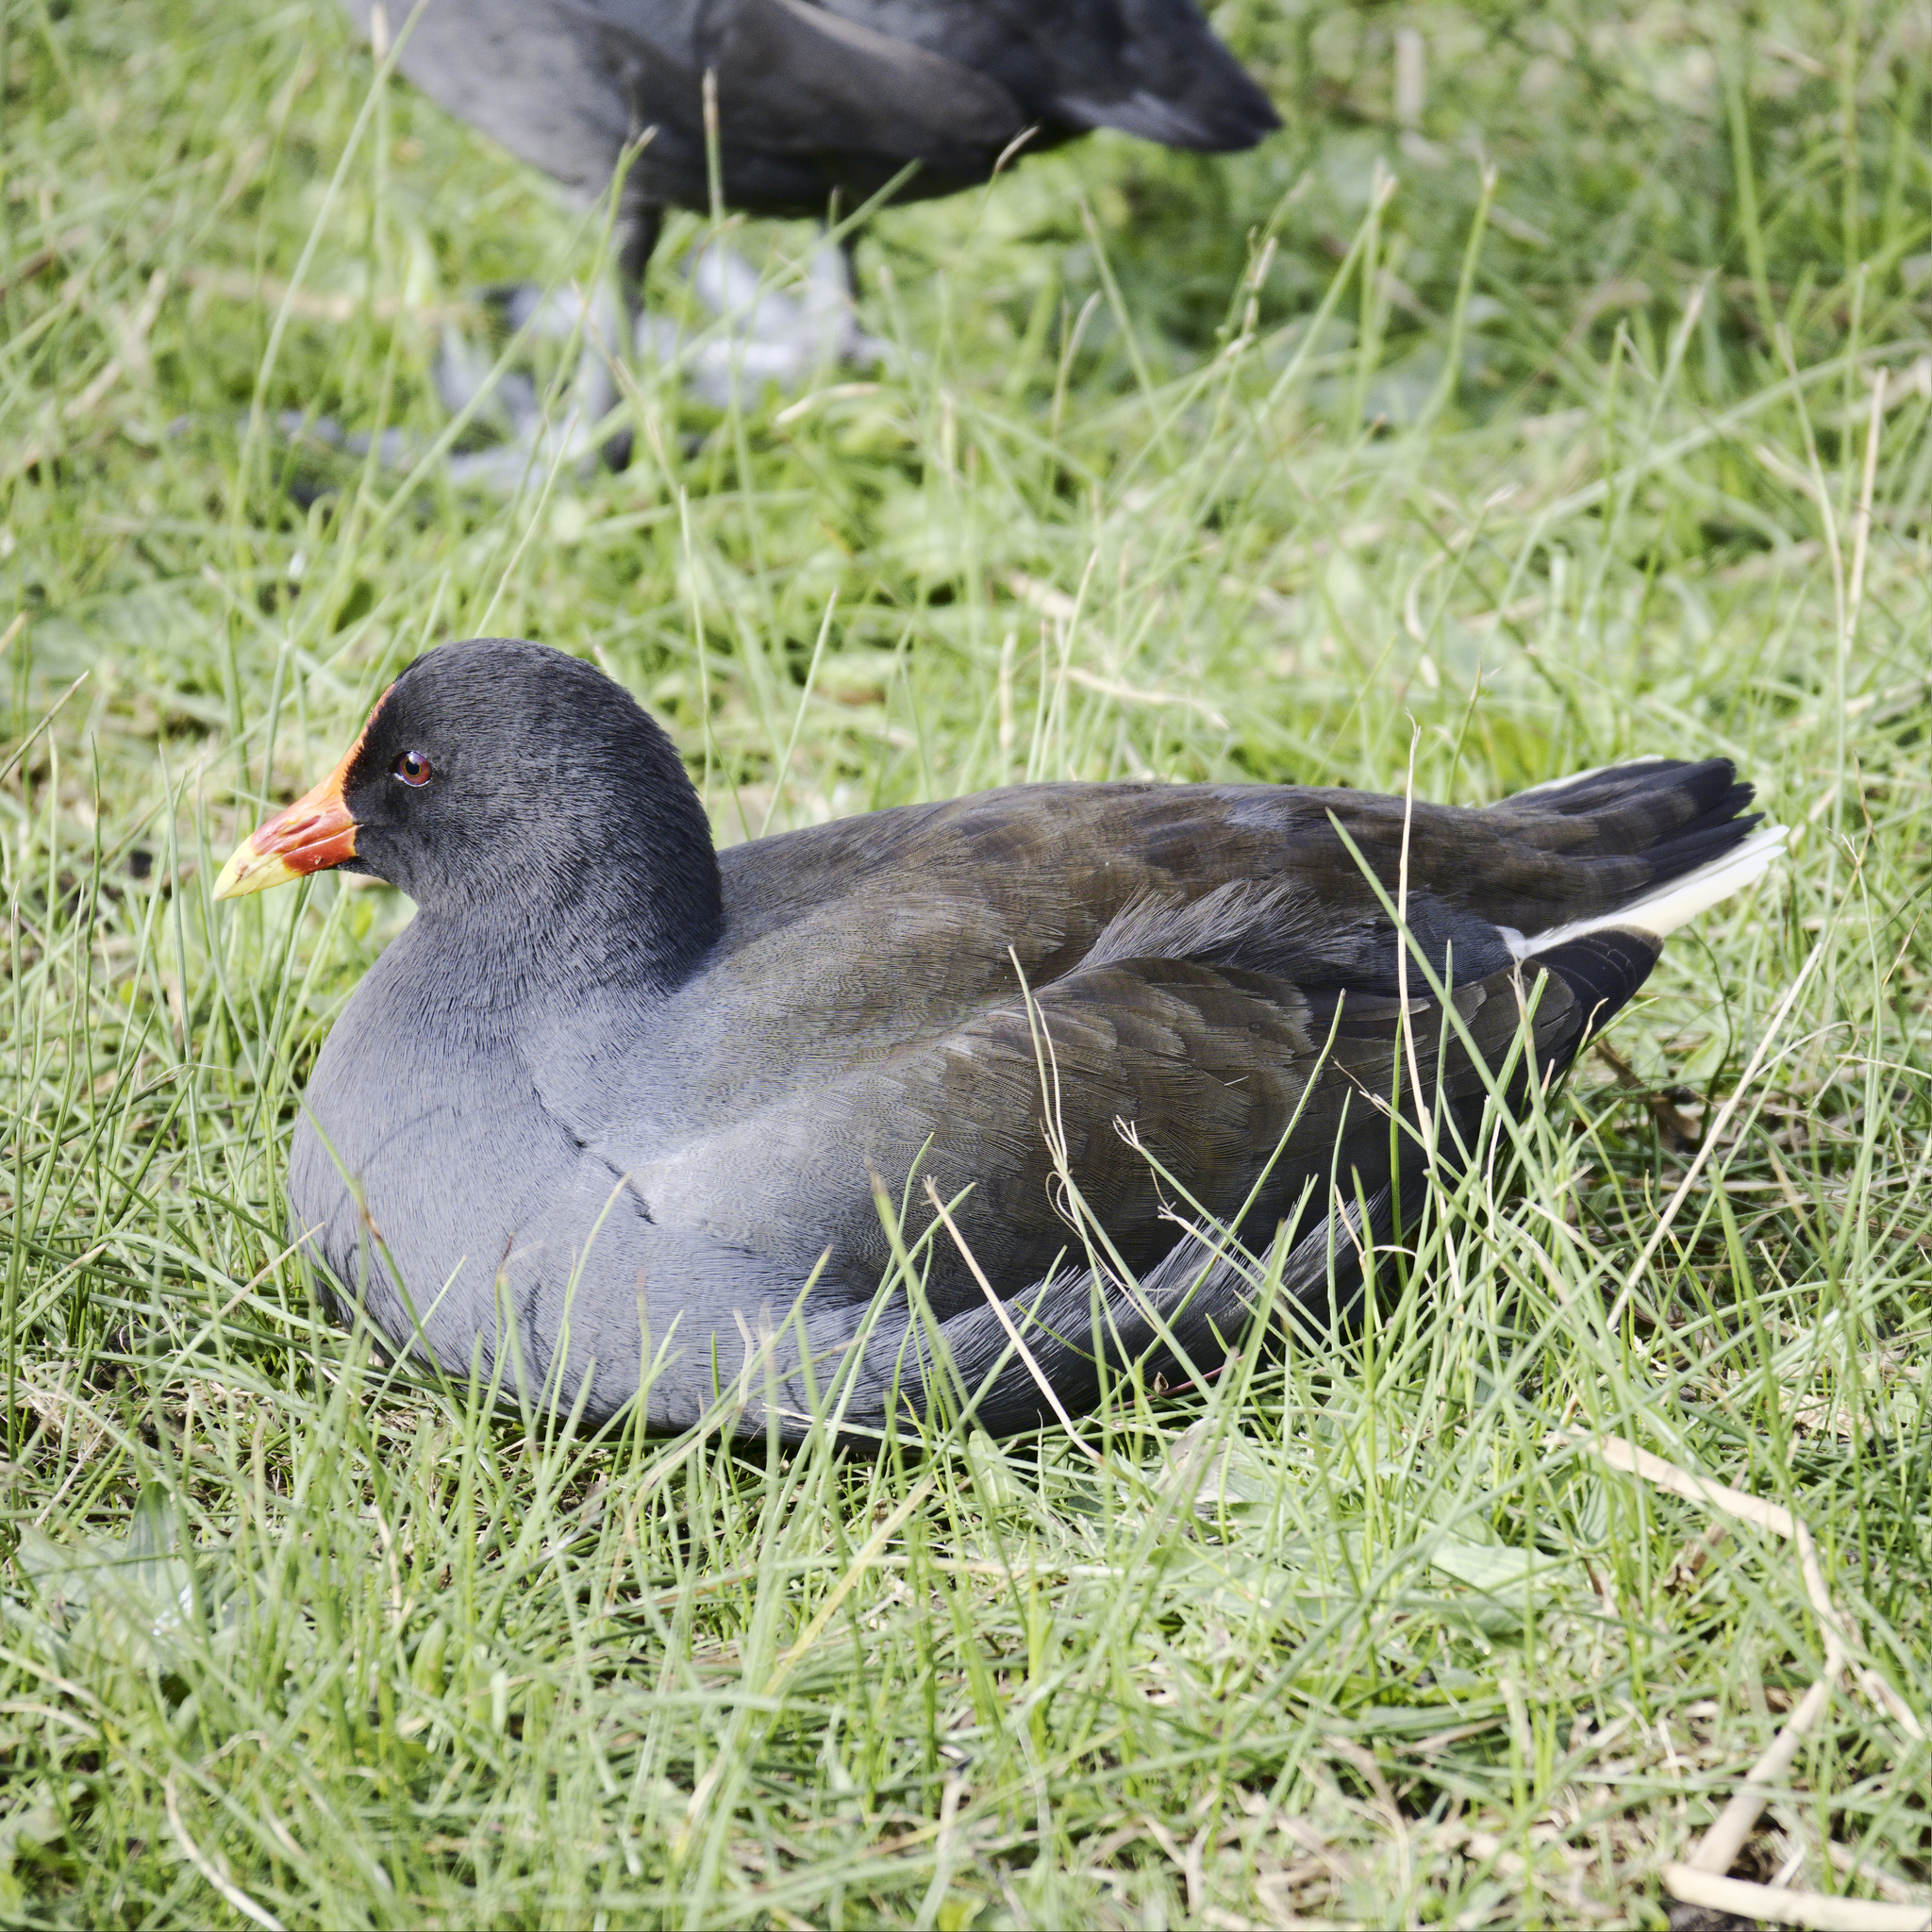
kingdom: Animalia
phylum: Chordata
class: Aves
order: Gruiformes
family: Rallidae
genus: Gallinula
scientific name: Gallinula tenebrosa
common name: Dusky moorhen
